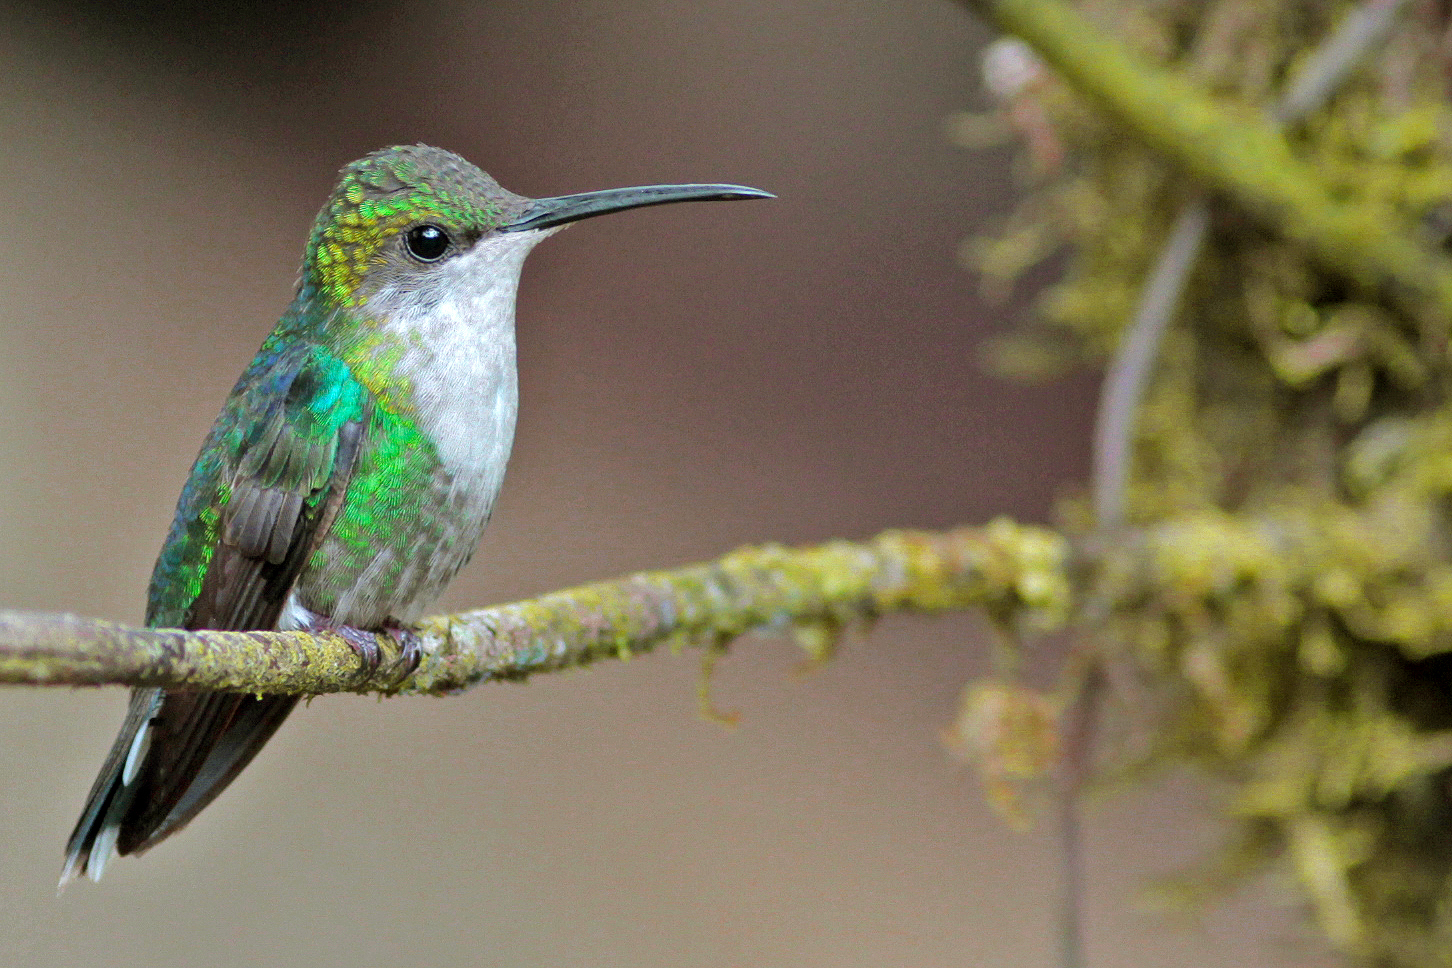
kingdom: Animalia
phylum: Chordata
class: Aves
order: Apodiformes
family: Trochilidae
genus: Thalurania
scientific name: Thalurania colombica
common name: Crowned woodnymph
